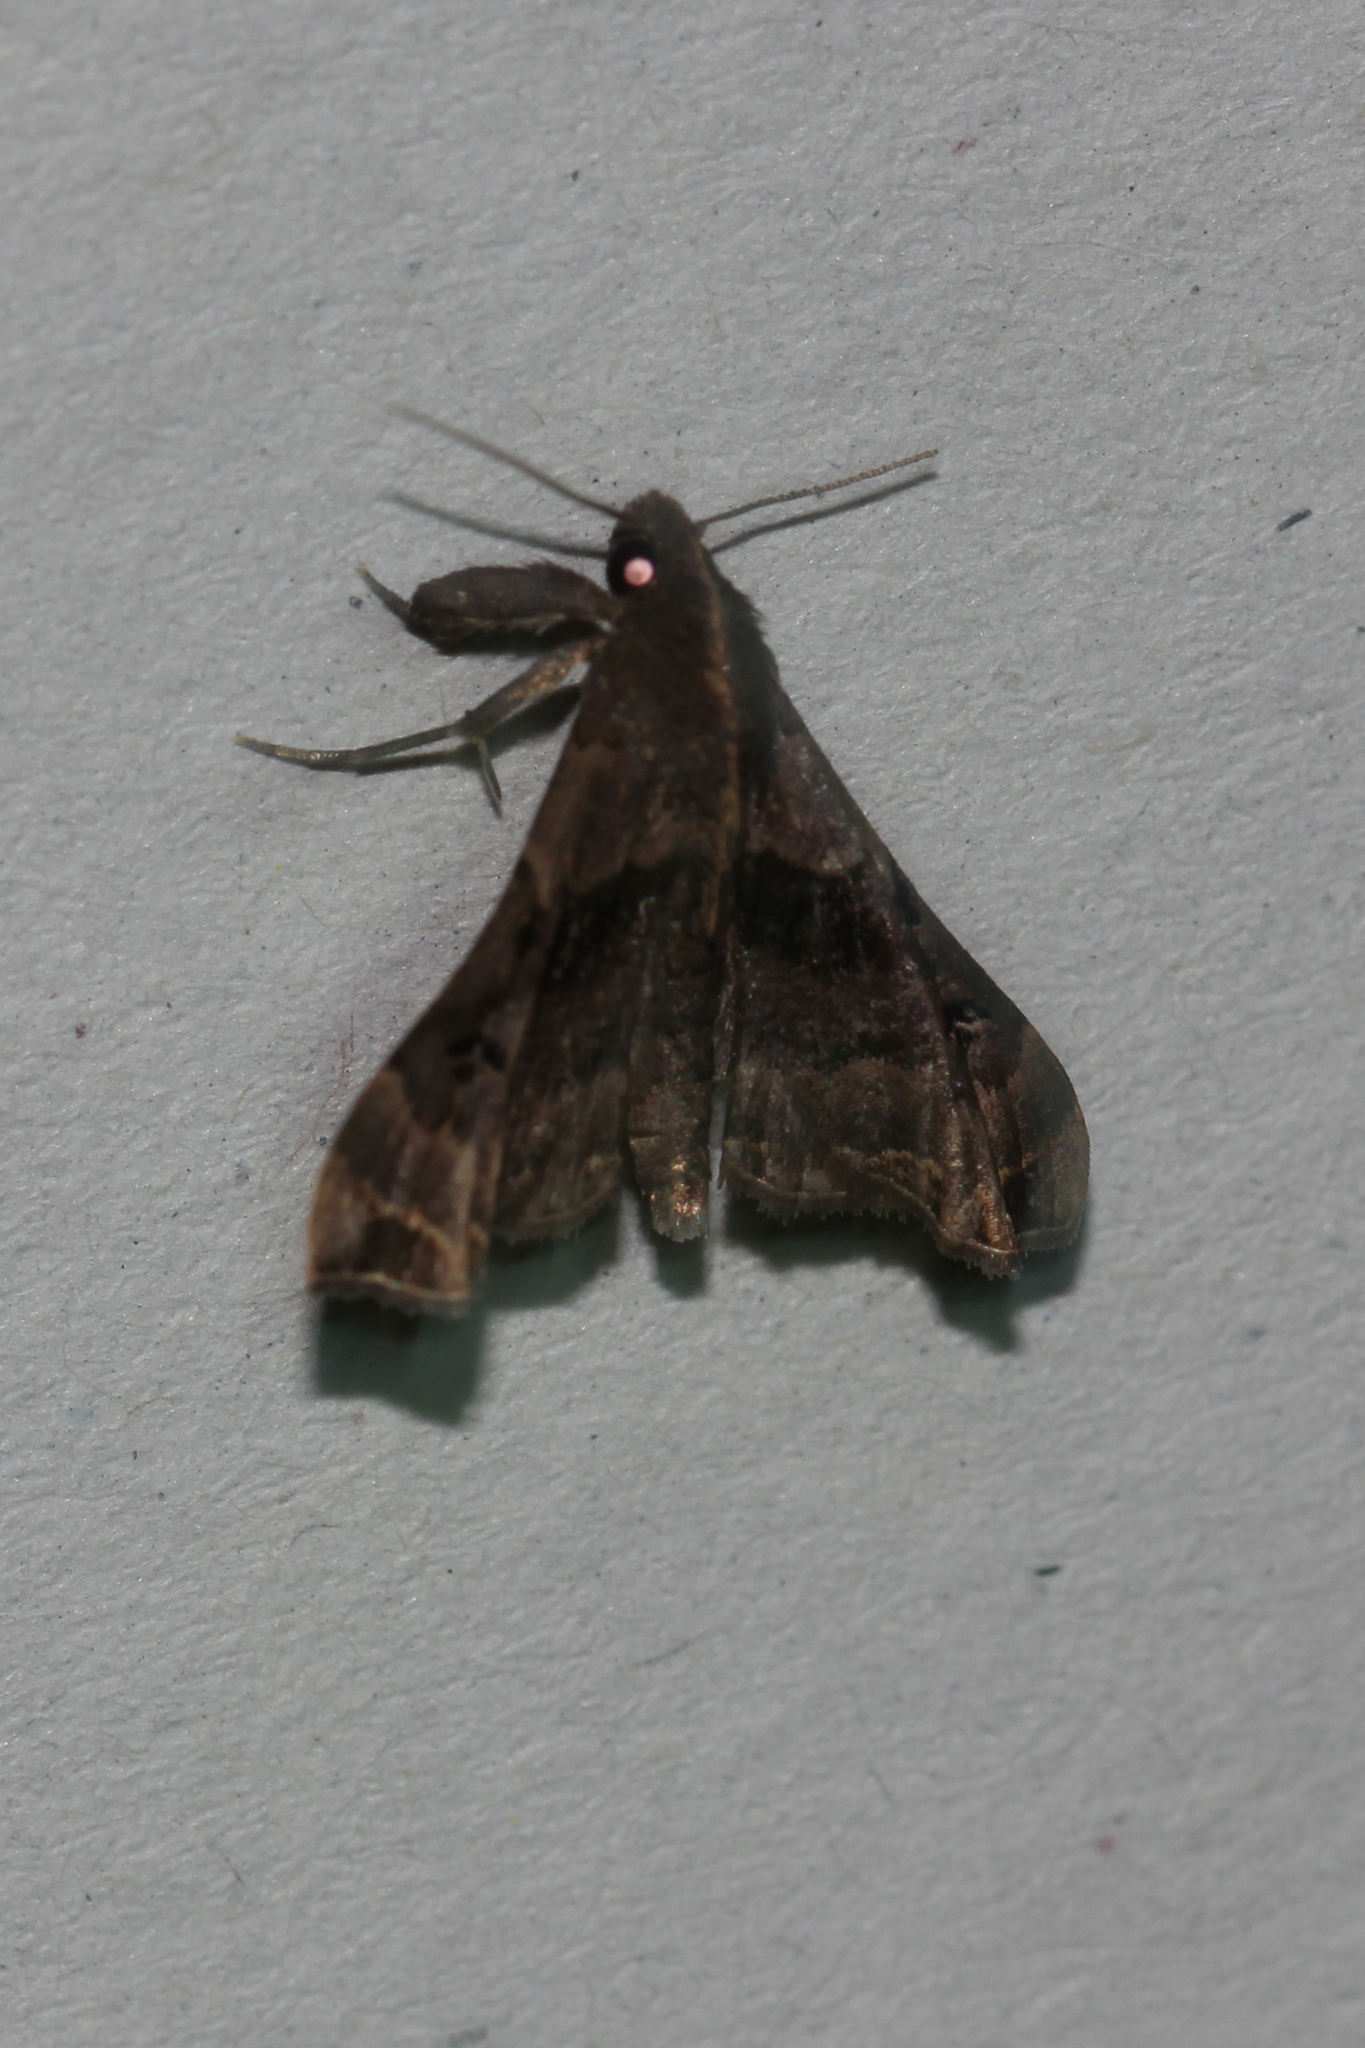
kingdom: Animalia
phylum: Arthropoda
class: Insecta
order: Lepidoptera
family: Erebidae
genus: Palthis
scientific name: Palthis asopialis
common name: Faint-spotted palthis moth
